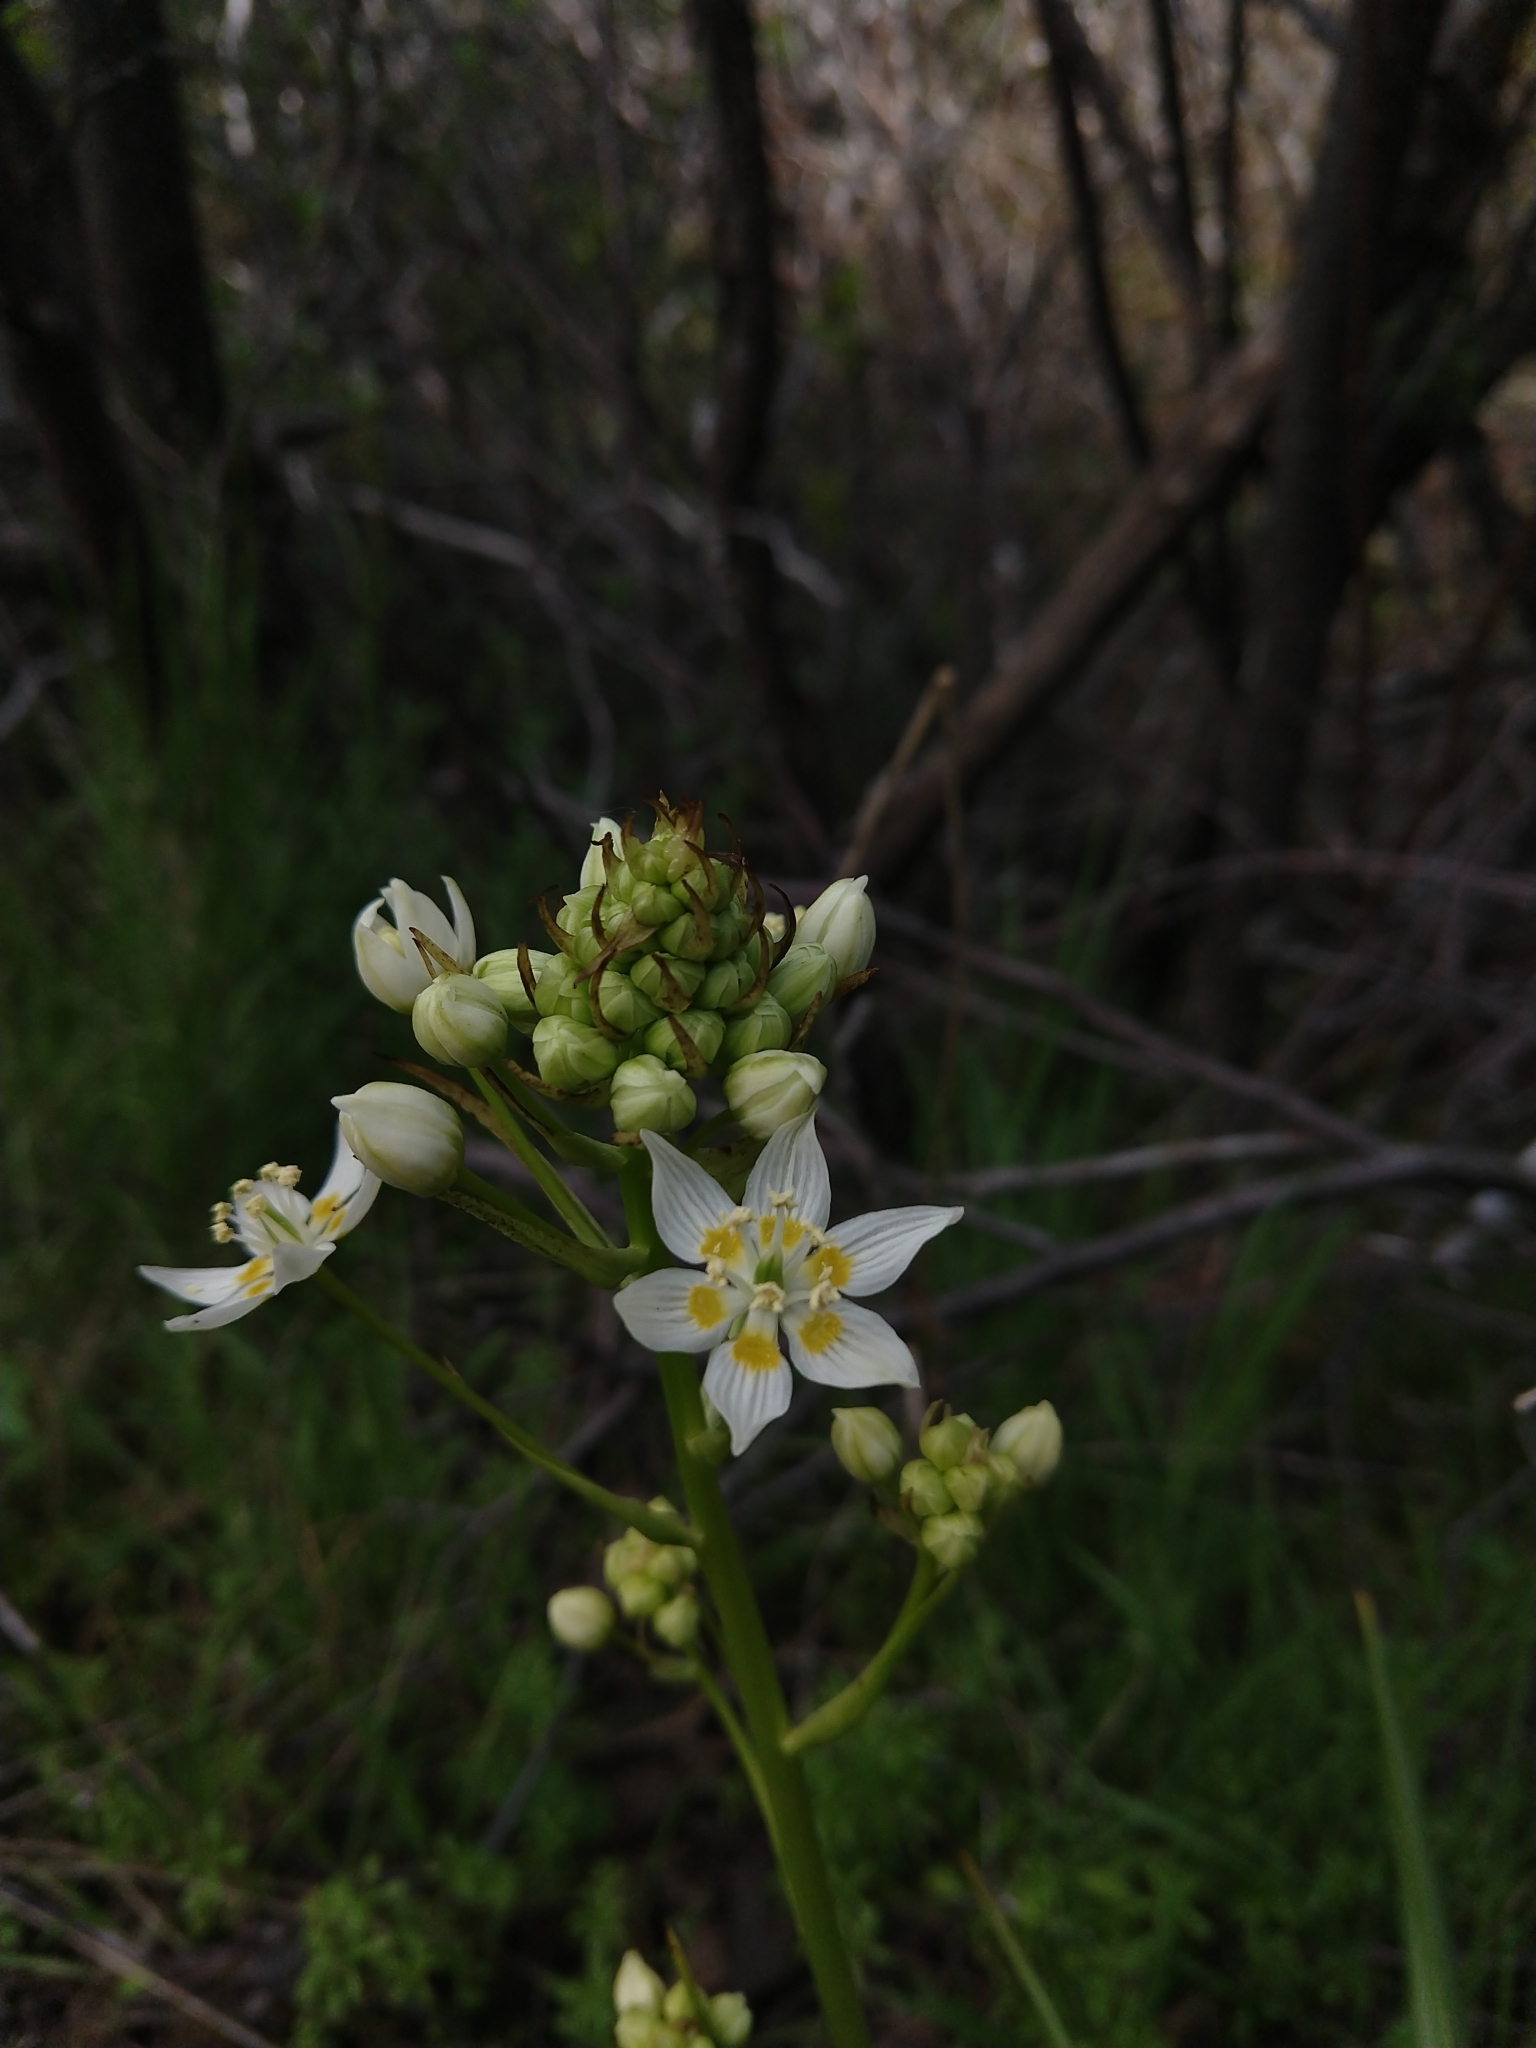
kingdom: Plantae
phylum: Tracheophyta
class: Liliopsida
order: Liliales
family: Melanthiaceae
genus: Toxicoscordion
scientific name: Toxicoscordion fremontii
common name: Fremont's death camas
